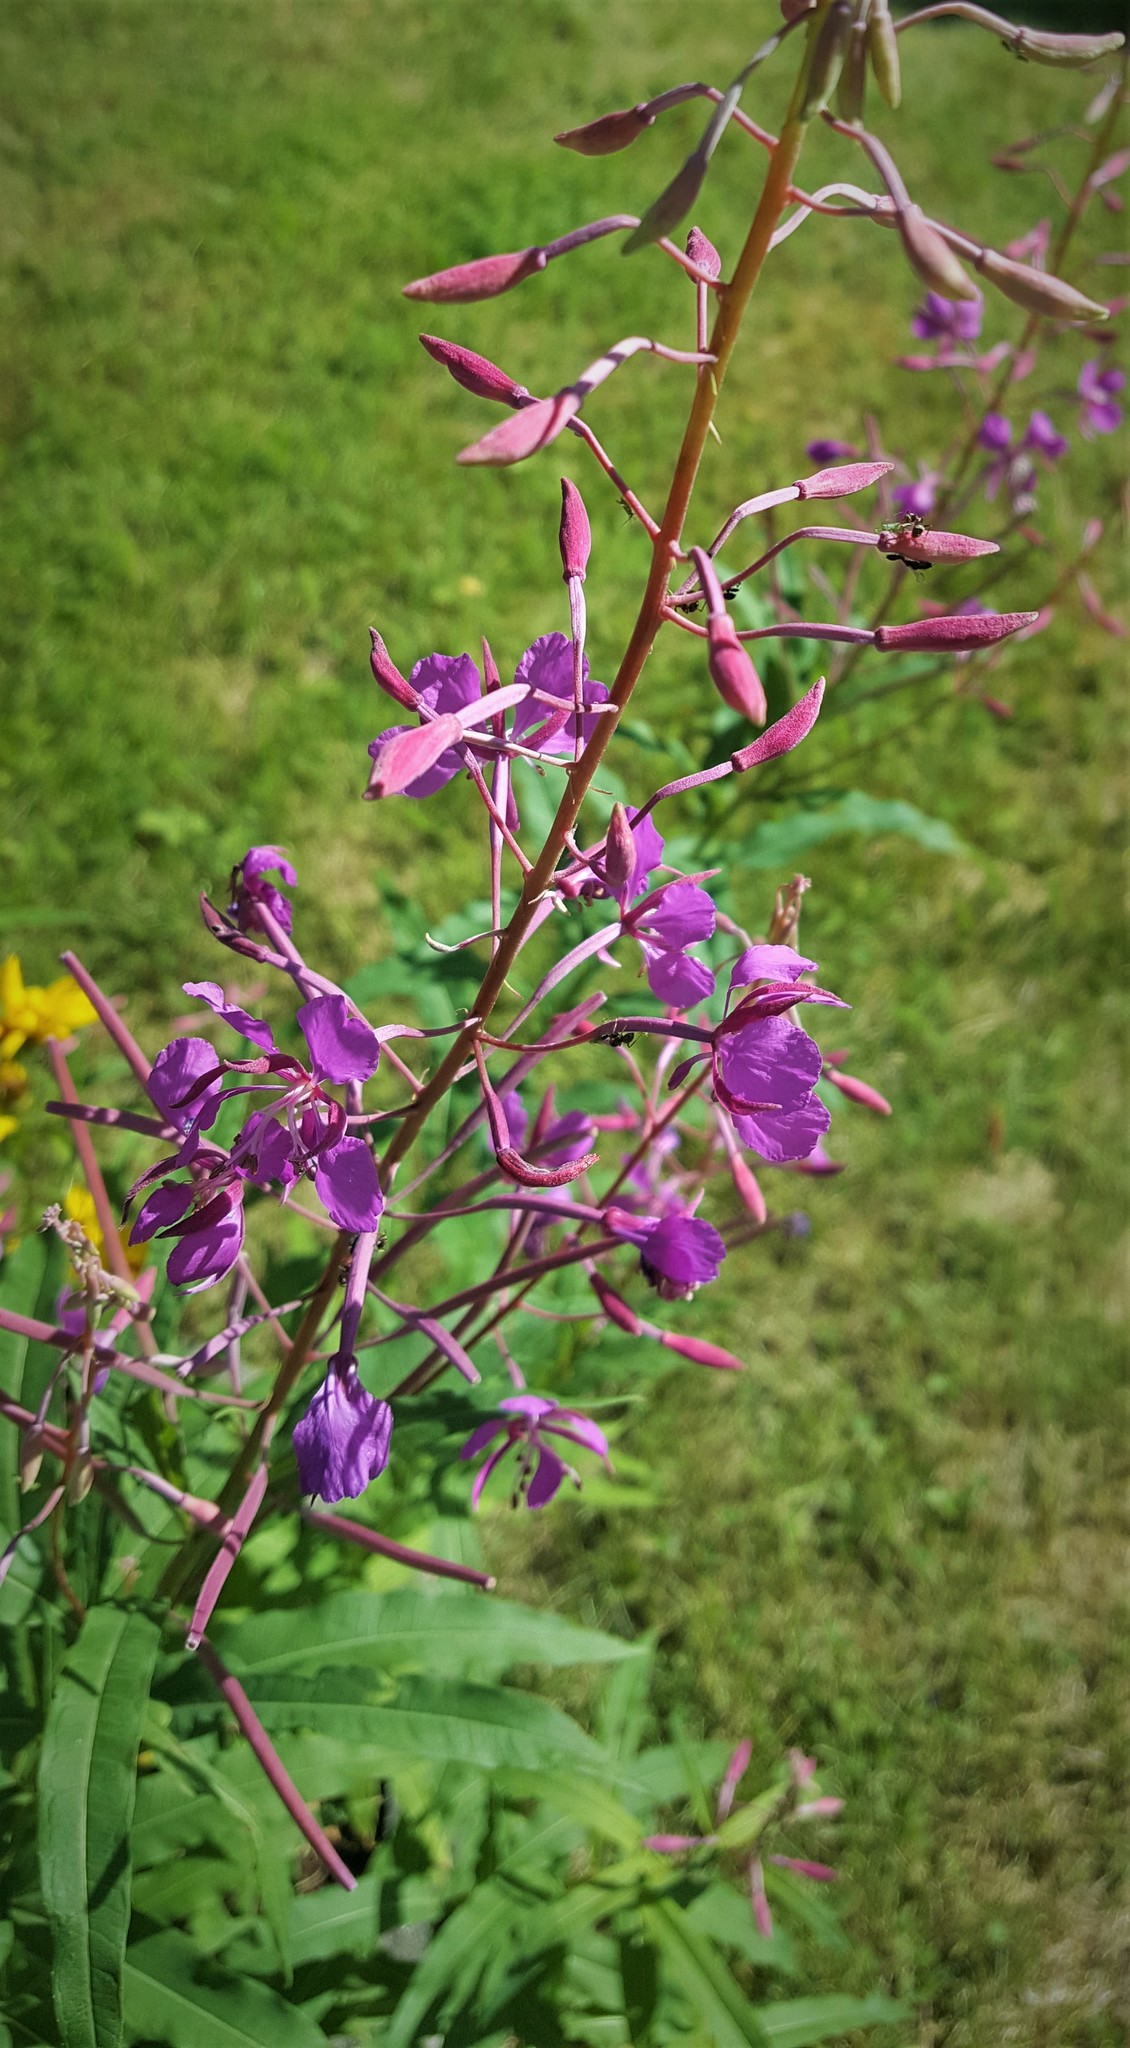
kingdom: Plantae
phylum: Tracheophyta
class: Magnoliopsida
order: Myrtales
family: Onagraceae
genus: Chamaenerion
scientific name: Chamaenerion angustifolium
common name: Fireweed
